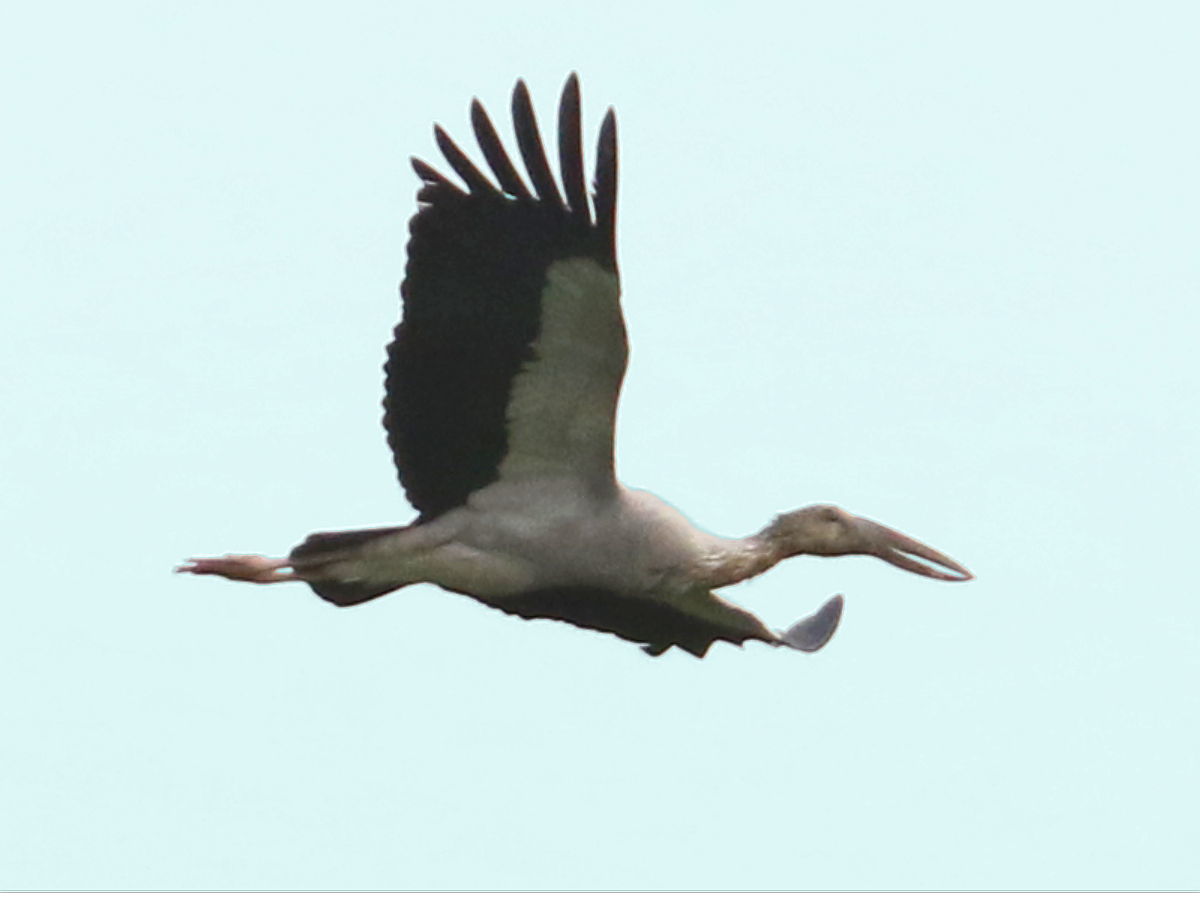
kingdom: Animalia
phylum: Chordata
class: Aves
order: Ciconiiformes
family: Ciconiidae
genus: Anastomus
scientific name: Anastomus oscitans
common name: Asian openbill
